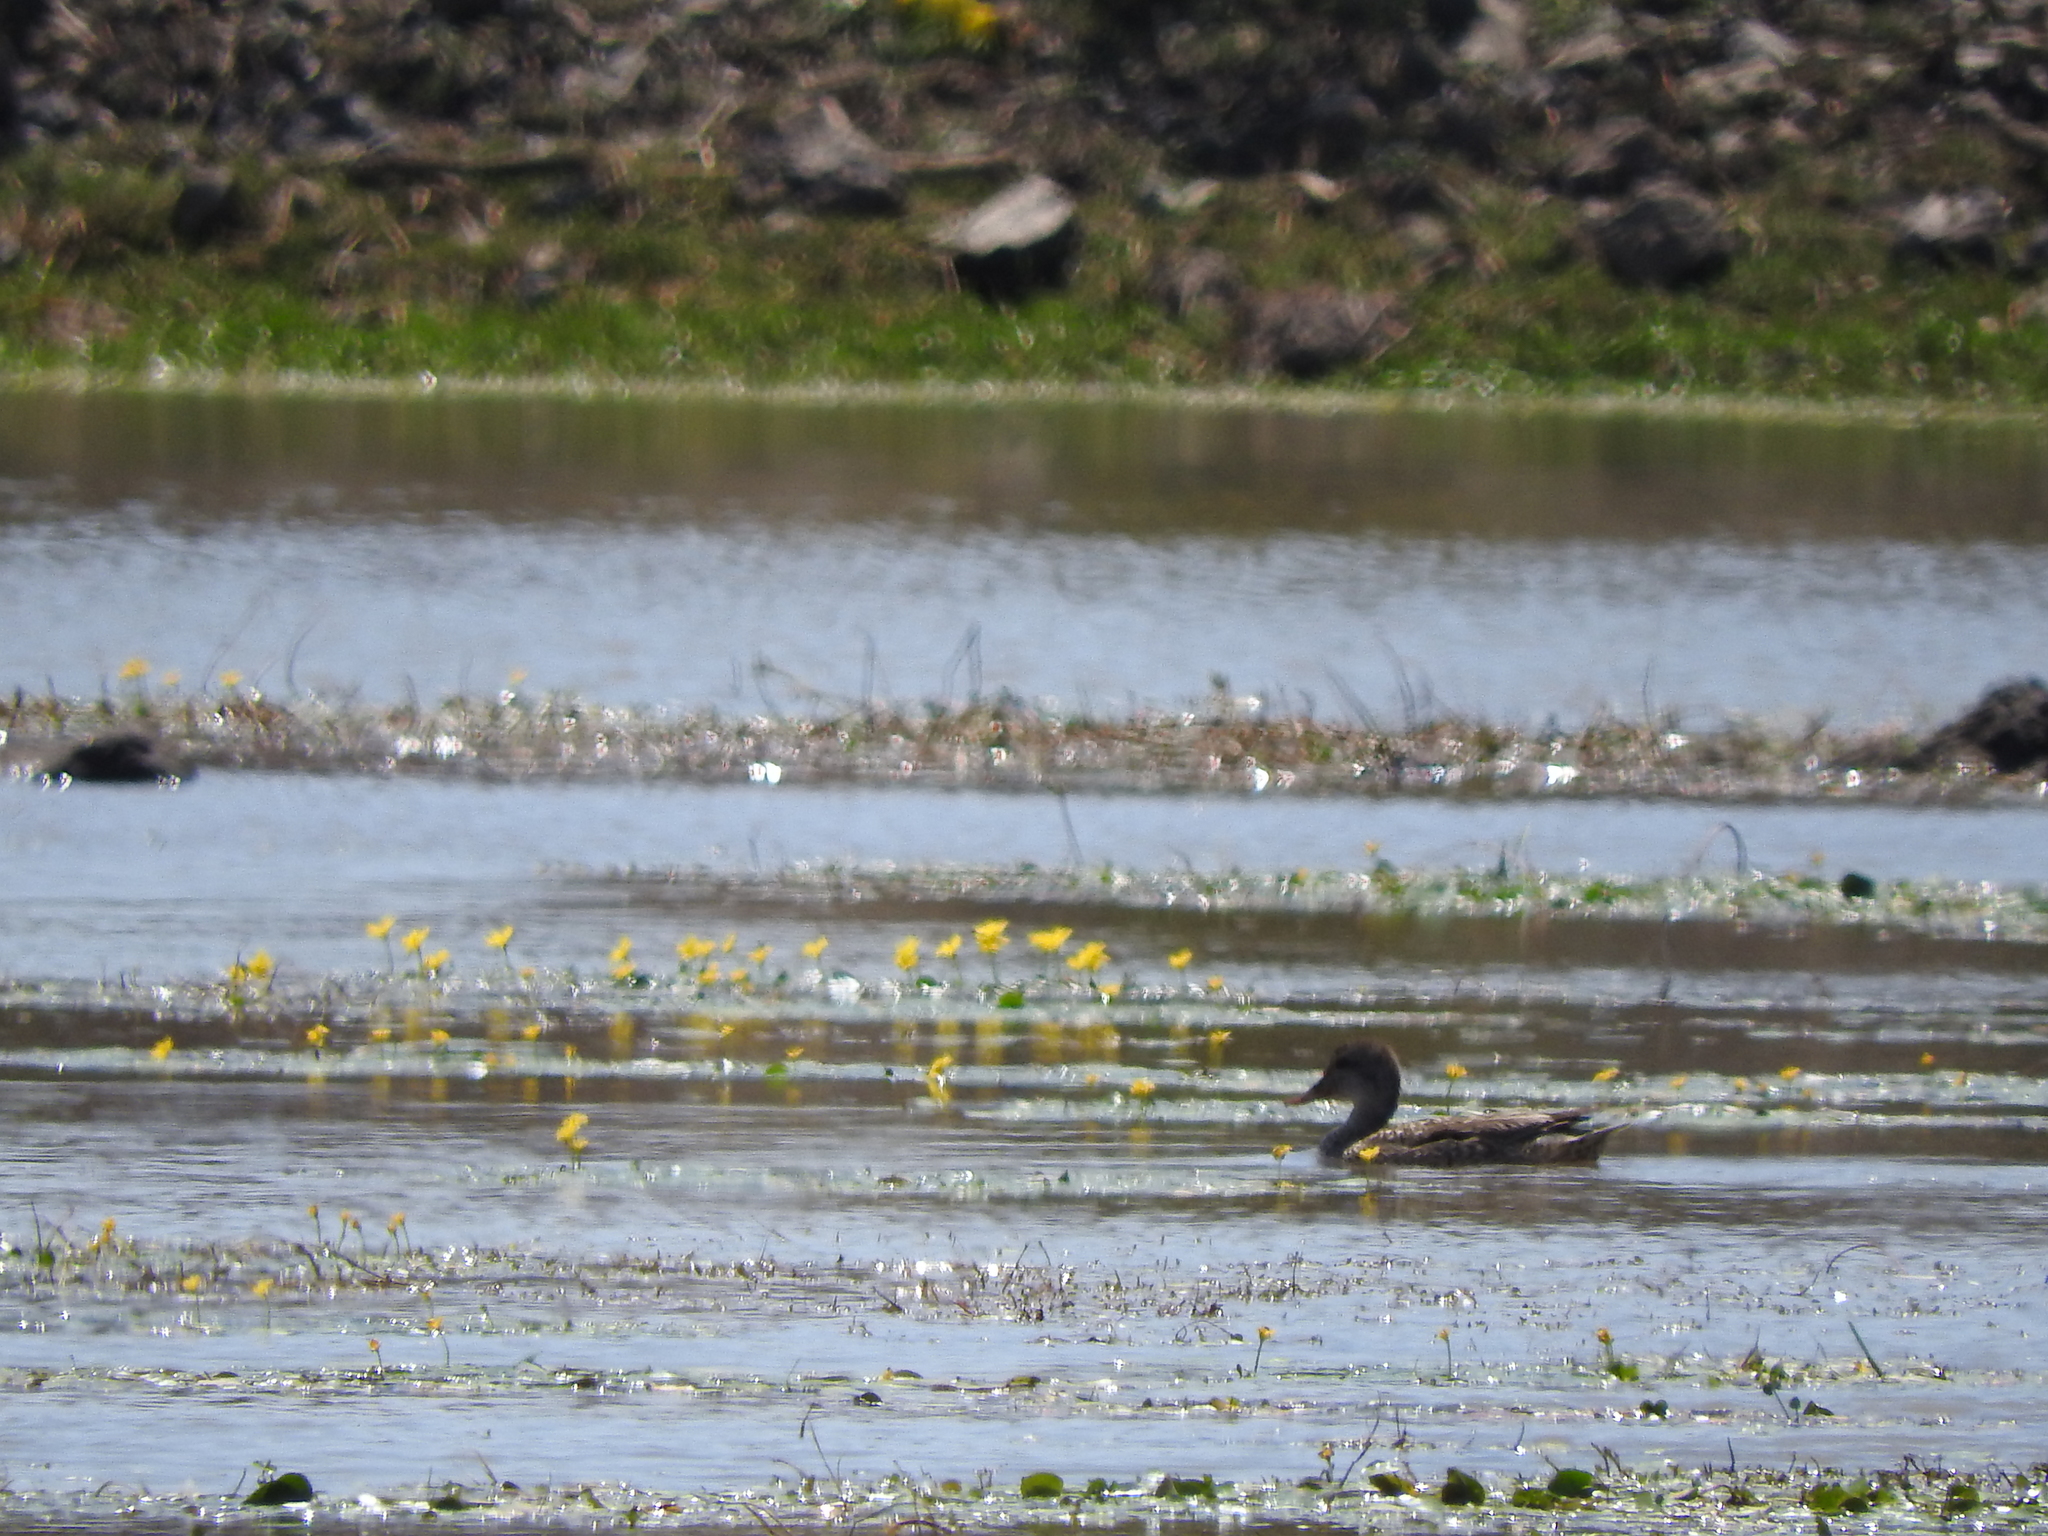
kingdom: Animalia
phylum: Chordata
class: Aves
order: Anseriformes
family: Anatidae
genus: Mareca
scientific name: Mareca strepera
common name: Gadwall
